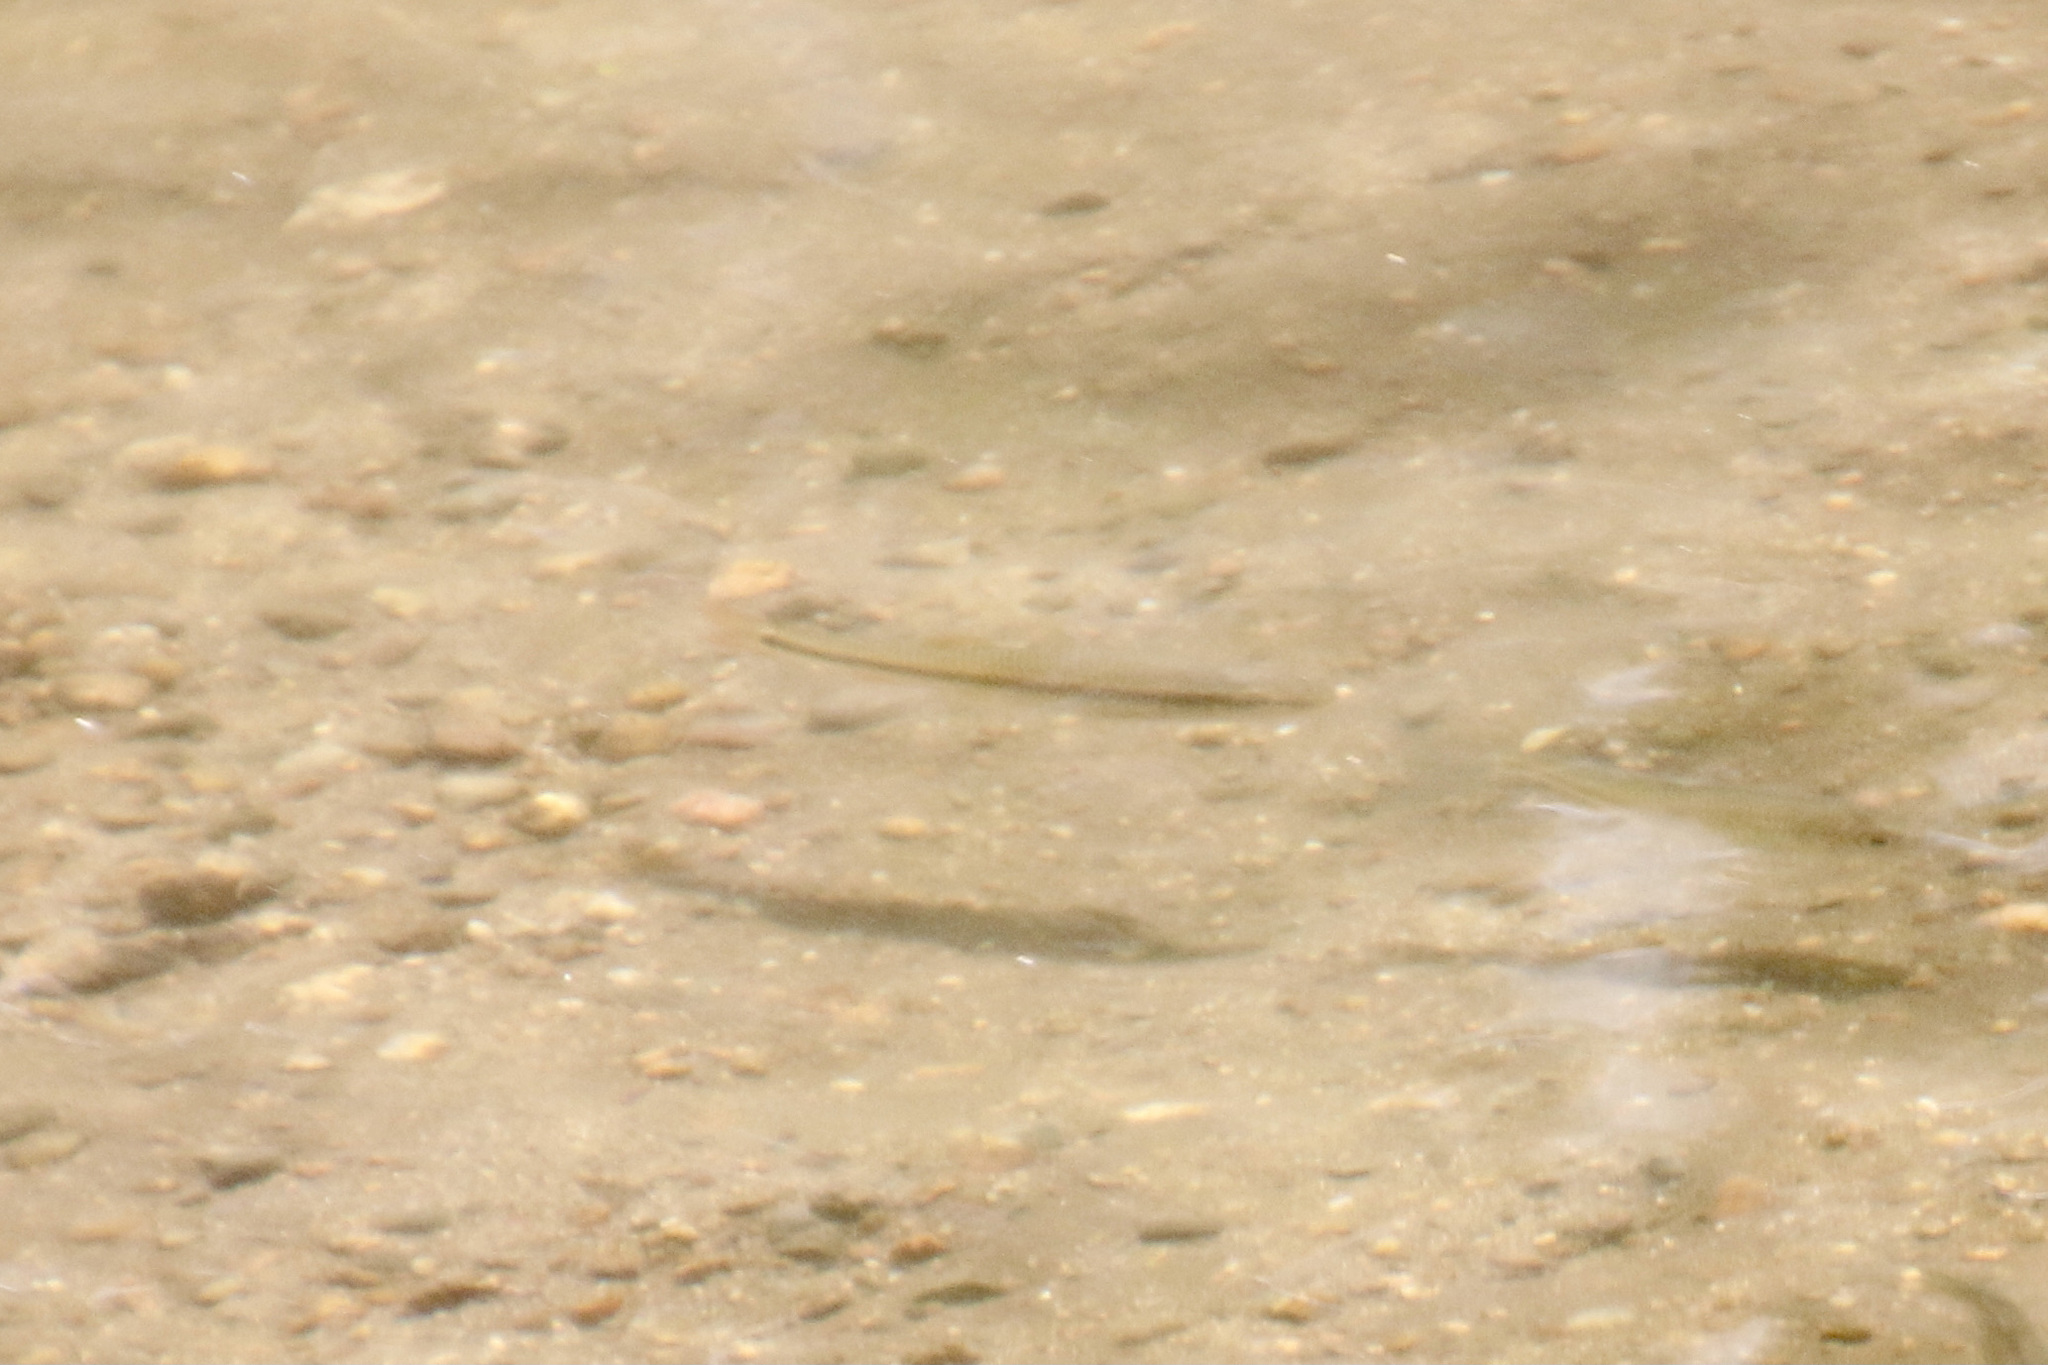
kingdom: Animalia
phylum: Chordata
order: Cypriniformes
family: Cyprinidae
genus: Nocomis
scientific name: Nocomis biguttatus
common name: Hornyhead chub
